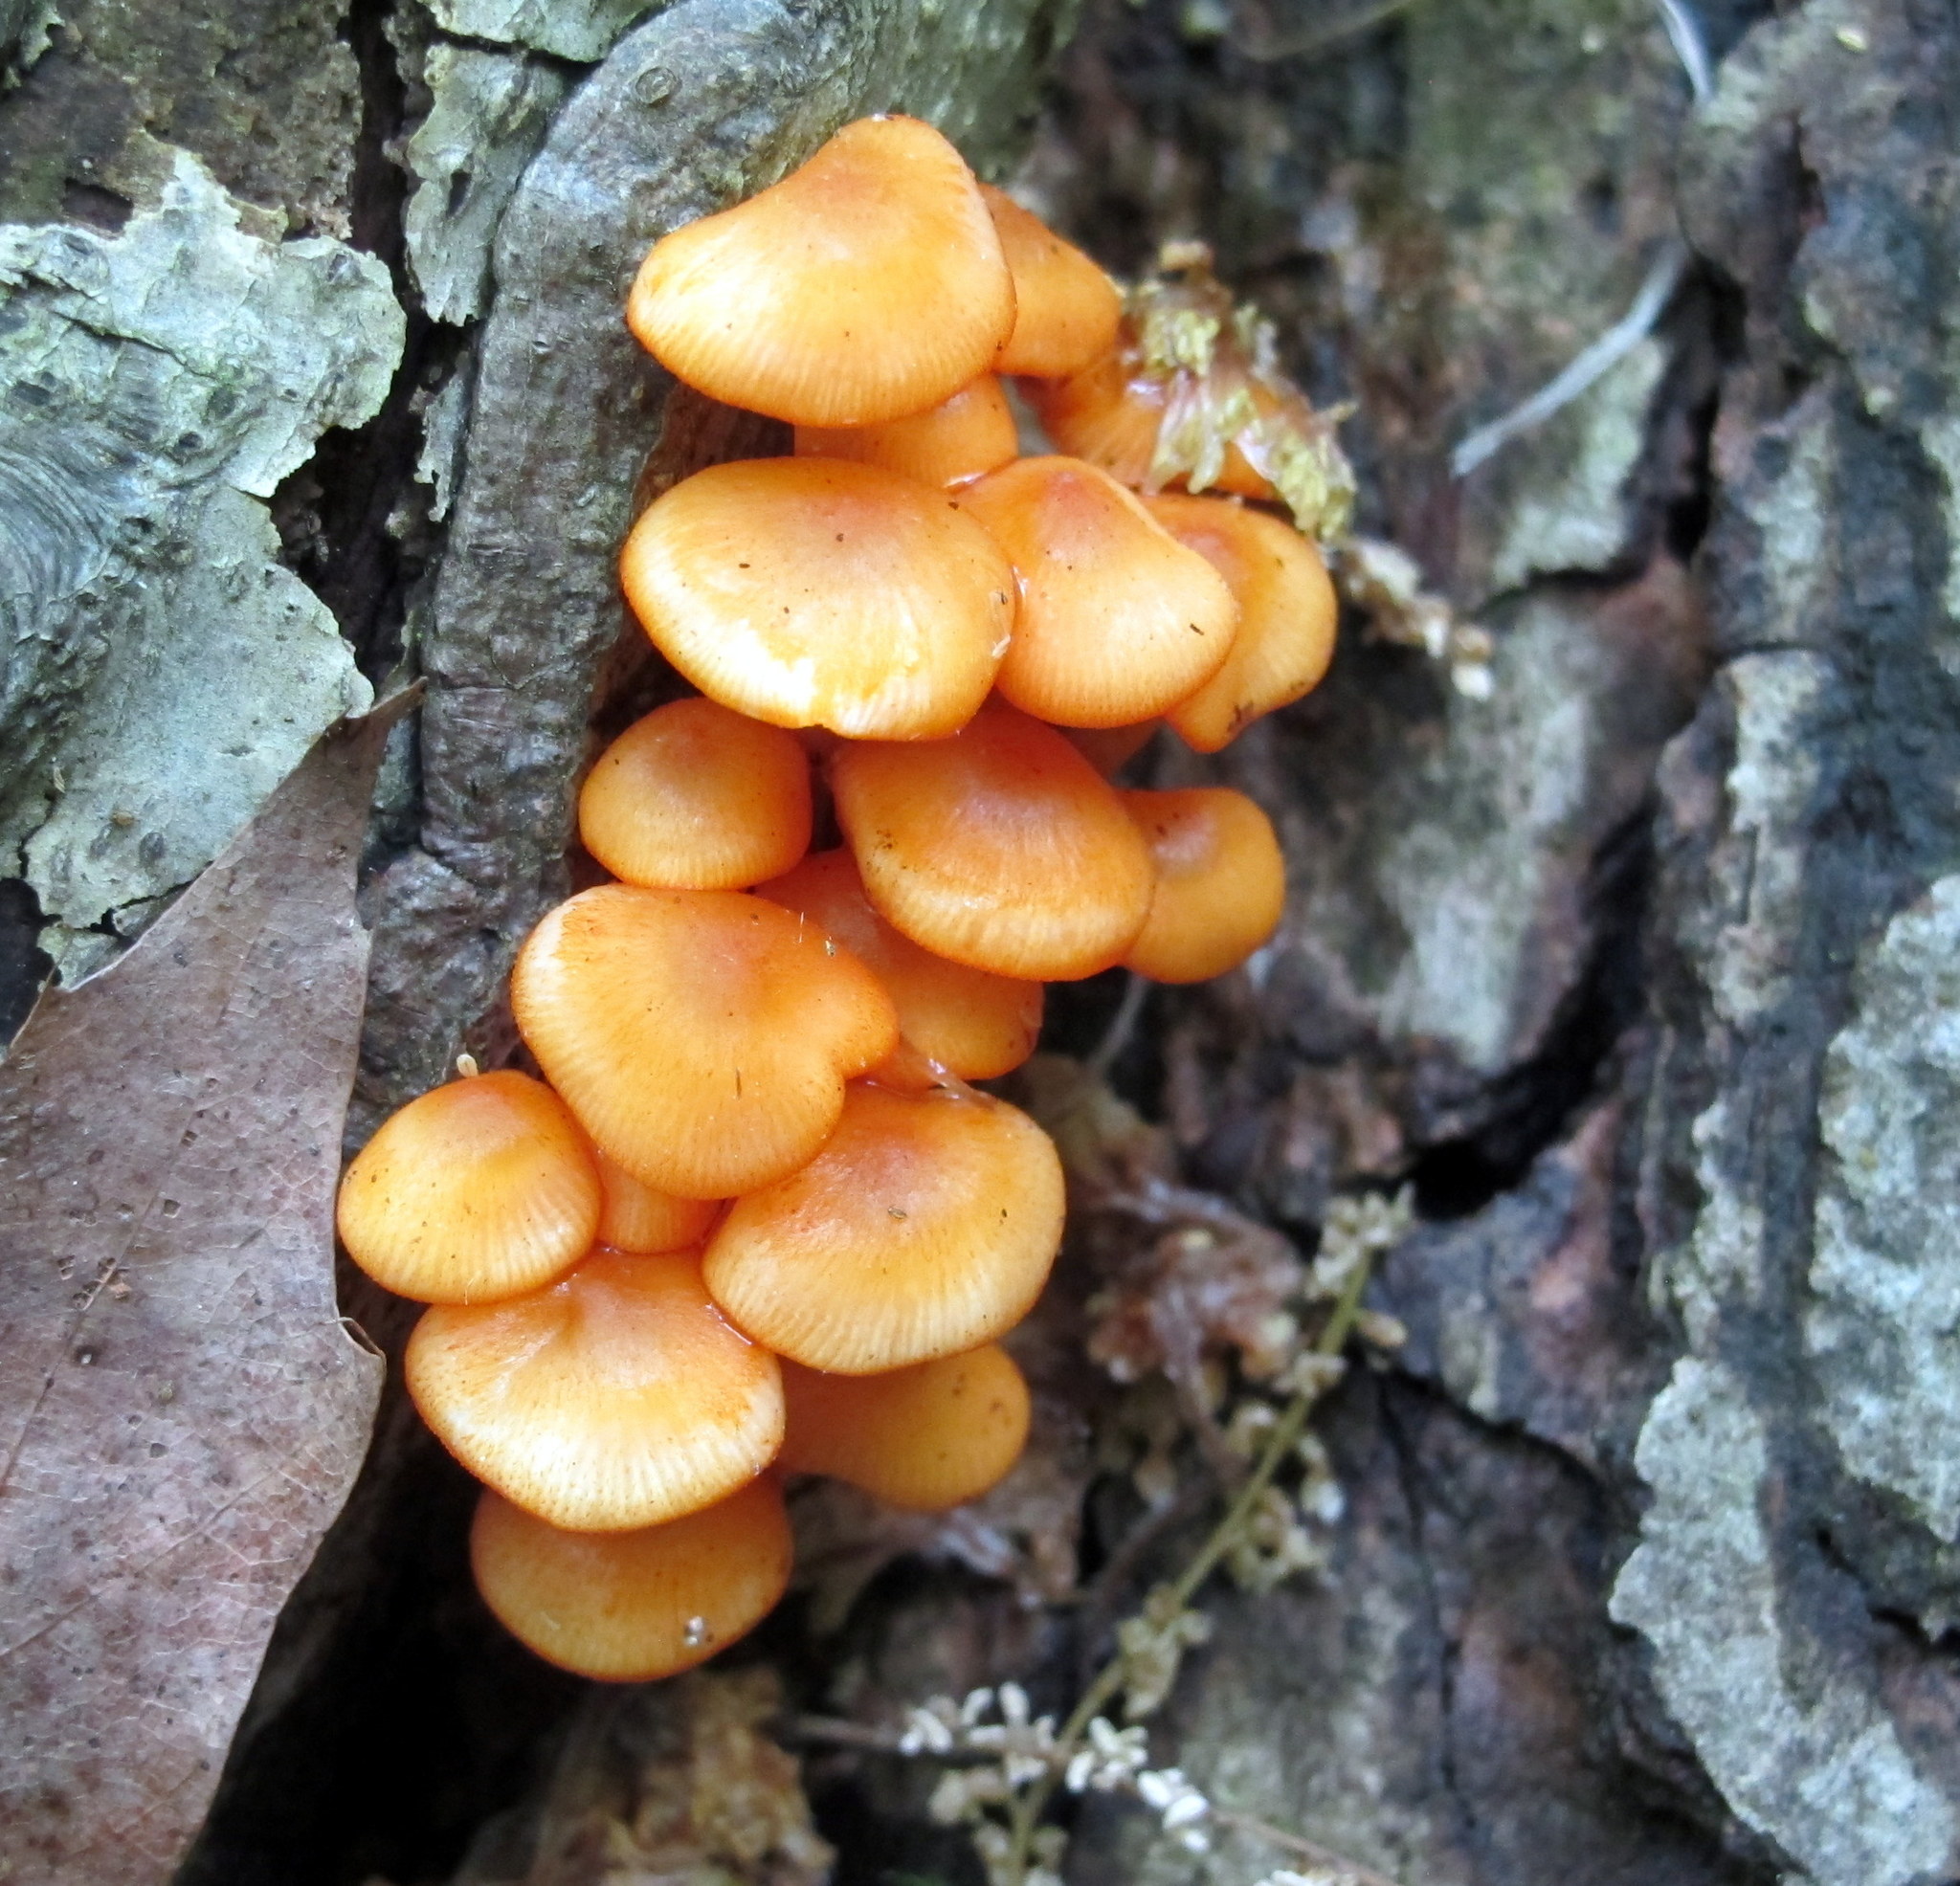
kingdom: Fungi
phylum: Basidiomycota
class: Agaricomycetes
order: Agaricales
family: Mycenaceae
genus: Mycena
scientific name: Mycena leaiana
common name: Orange mycena
